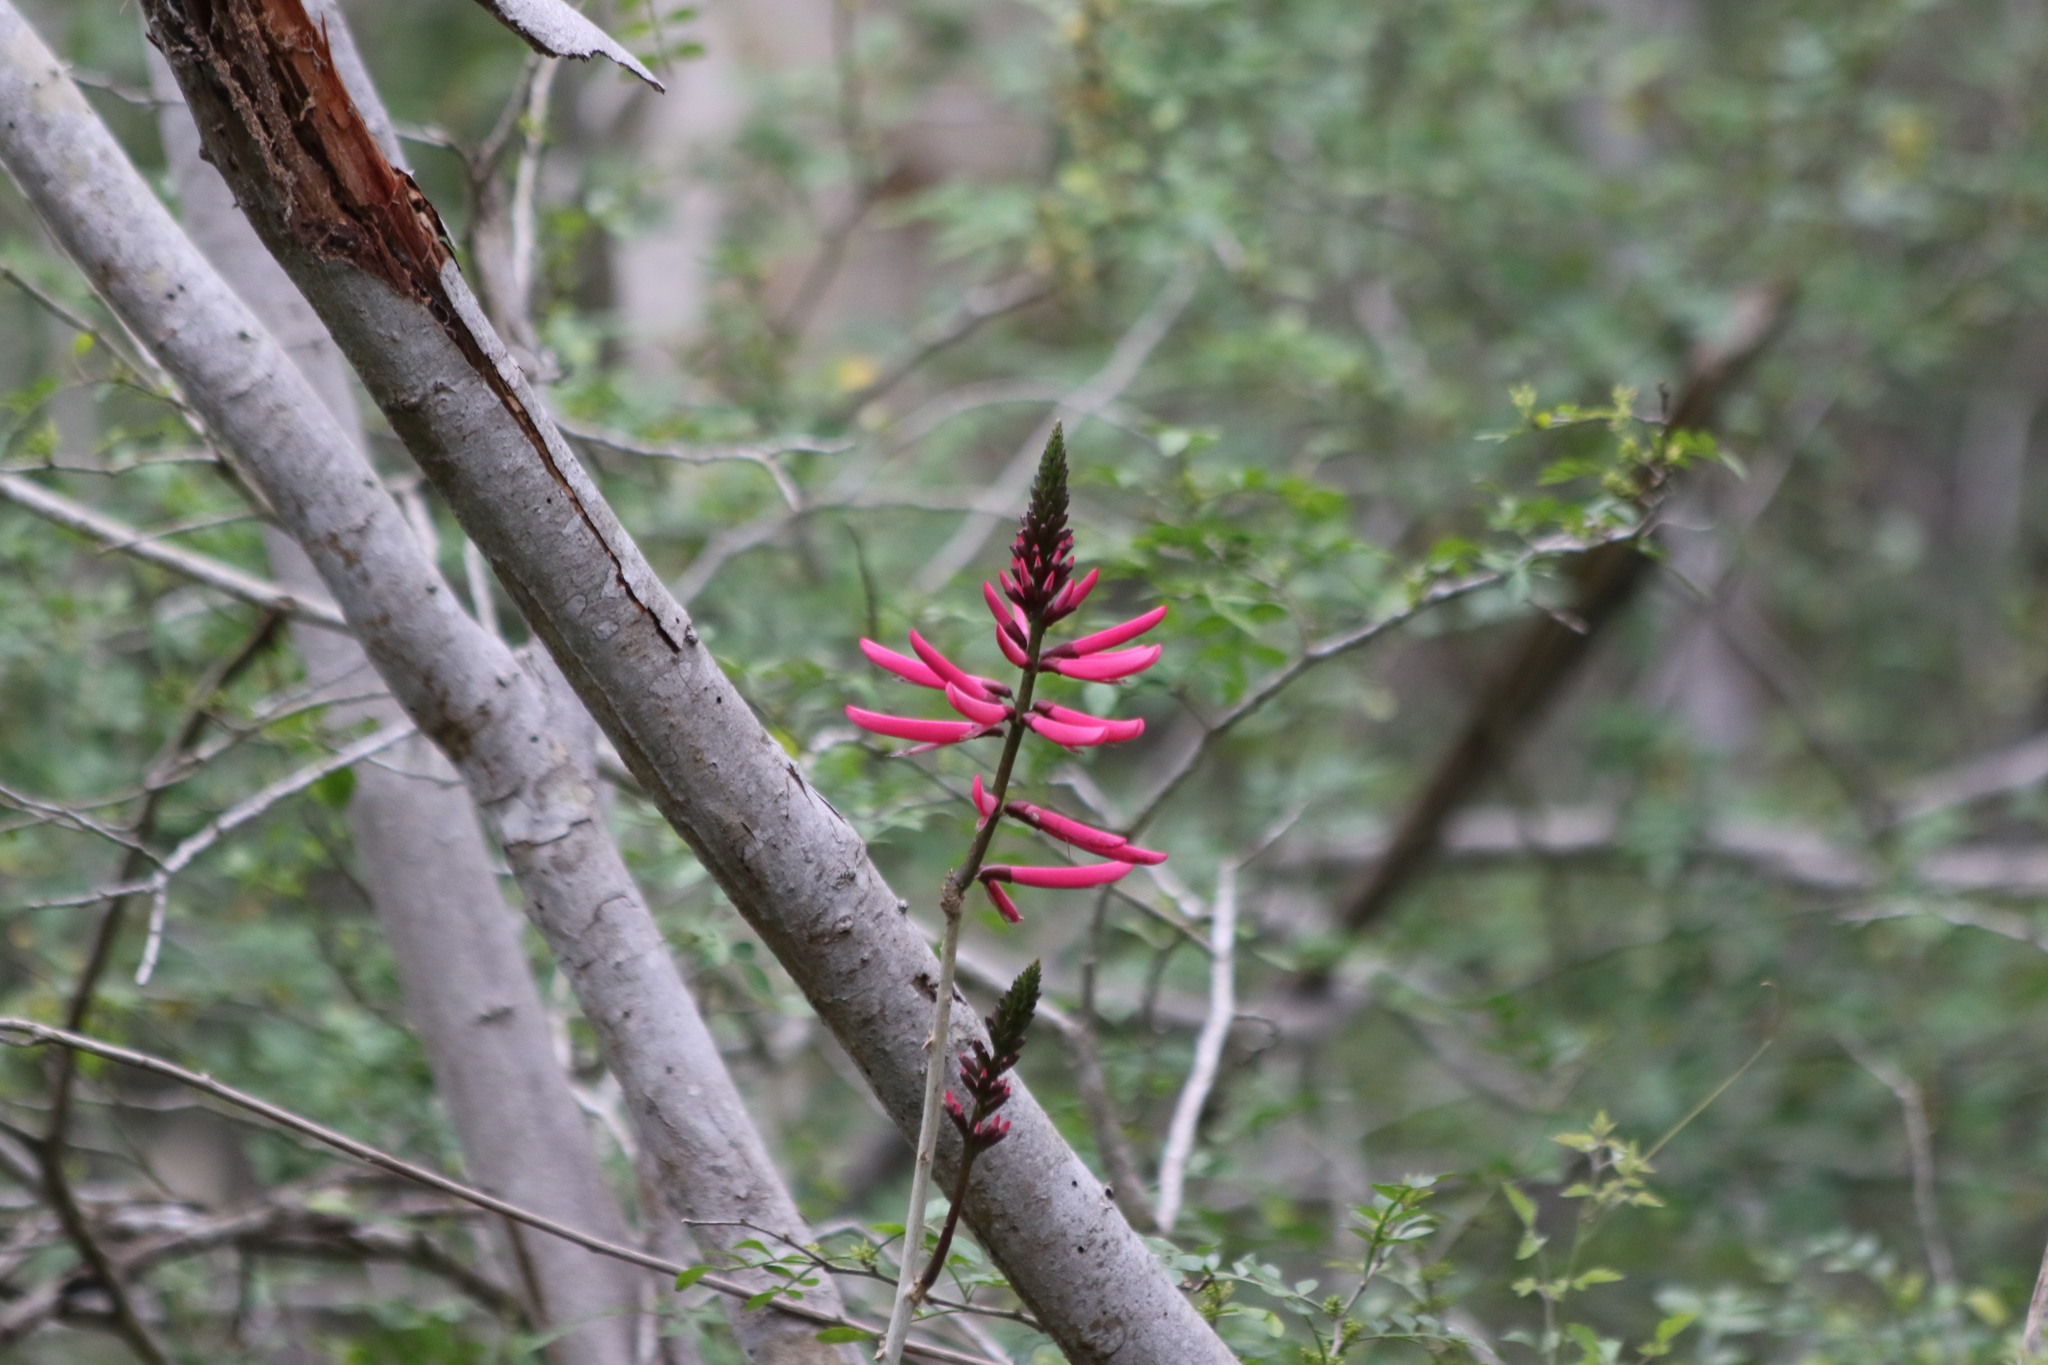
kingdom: Plantae
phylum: Tracheophyta
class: Magnoliopsida
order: Fabales
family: Fabaceae
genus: Erythrina
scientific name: Erythrina herbacea
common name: Coral-bean
